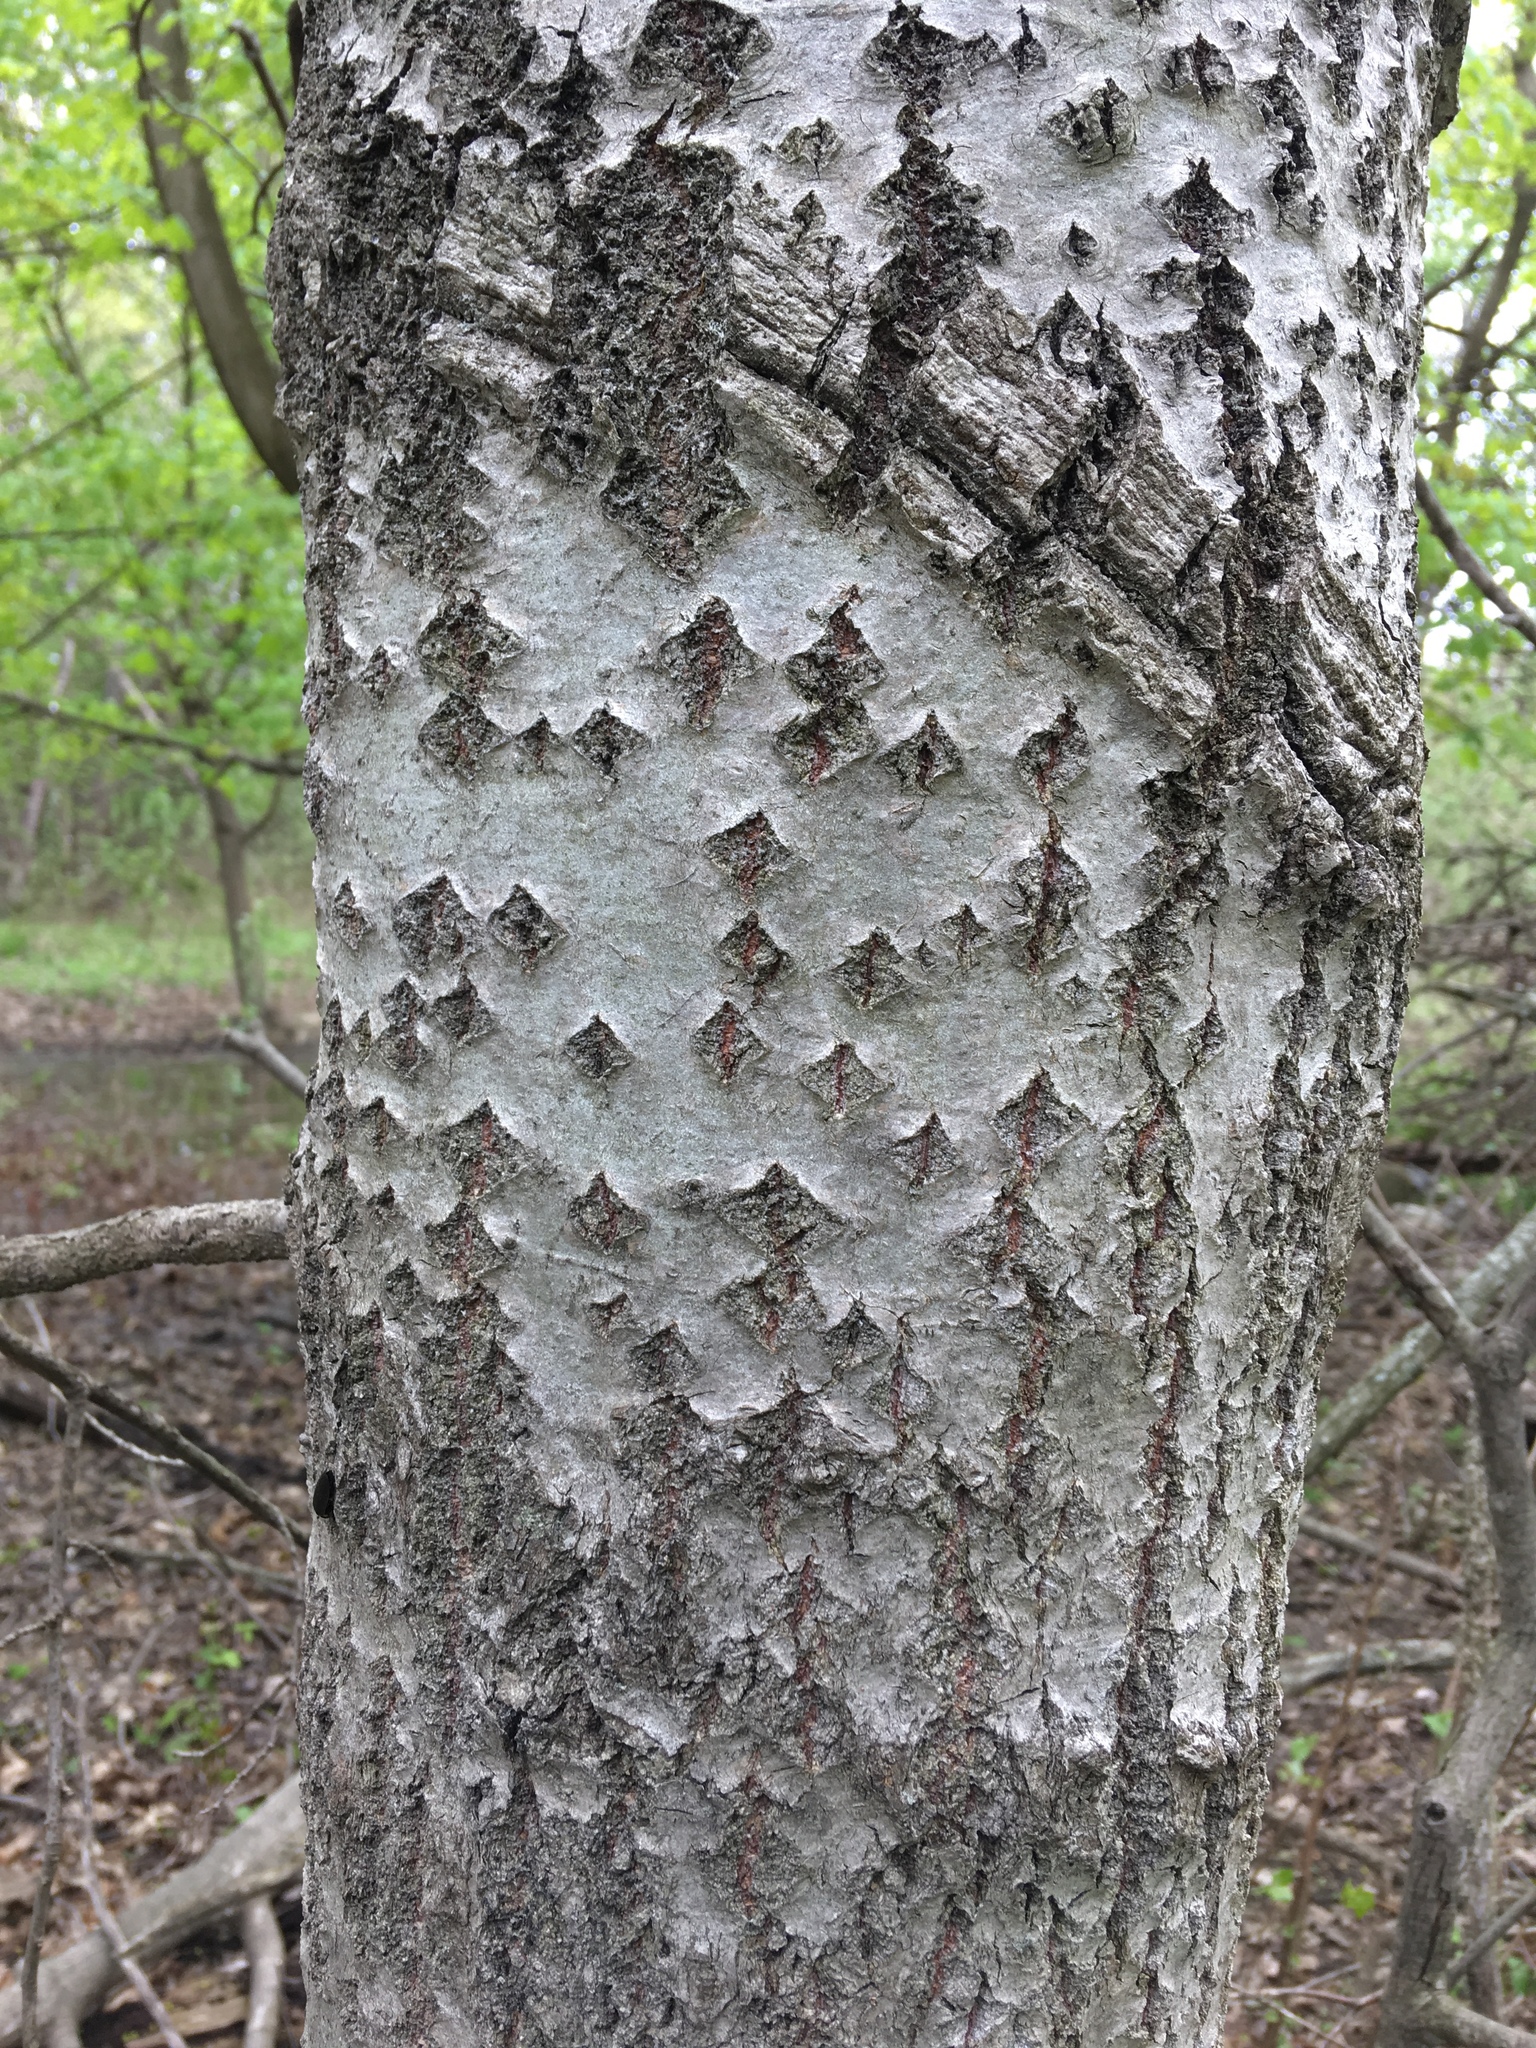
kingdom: Plantae
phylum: Tracheophyta
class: Magnoliopsida
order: Malpighiales
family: Salicaceae
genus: Populus
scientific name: Populus grandidentata
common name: Bigtooth aspen
